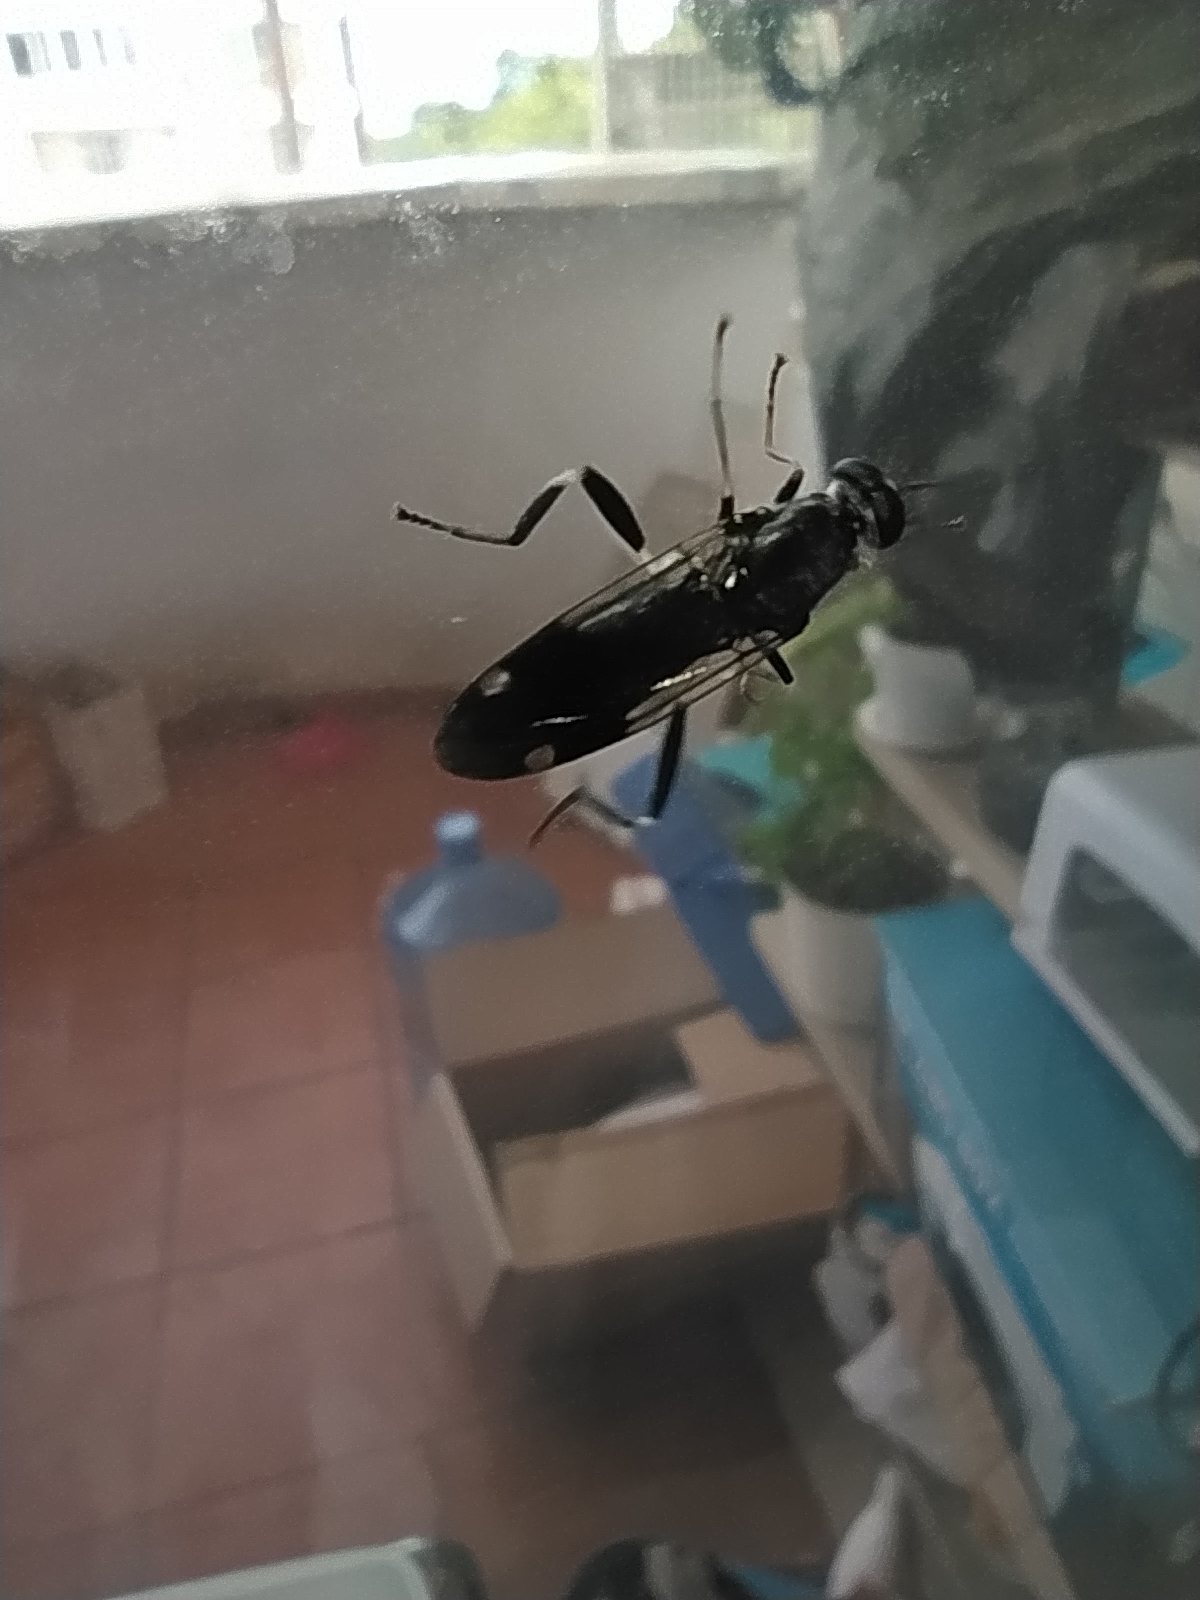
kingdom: Animalia
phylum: Arthropoda
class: Insecta
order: Diptera
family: Stratiomyidae
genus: Exaireta
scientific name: Exaireta spinigera
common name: Blue soldier fly
